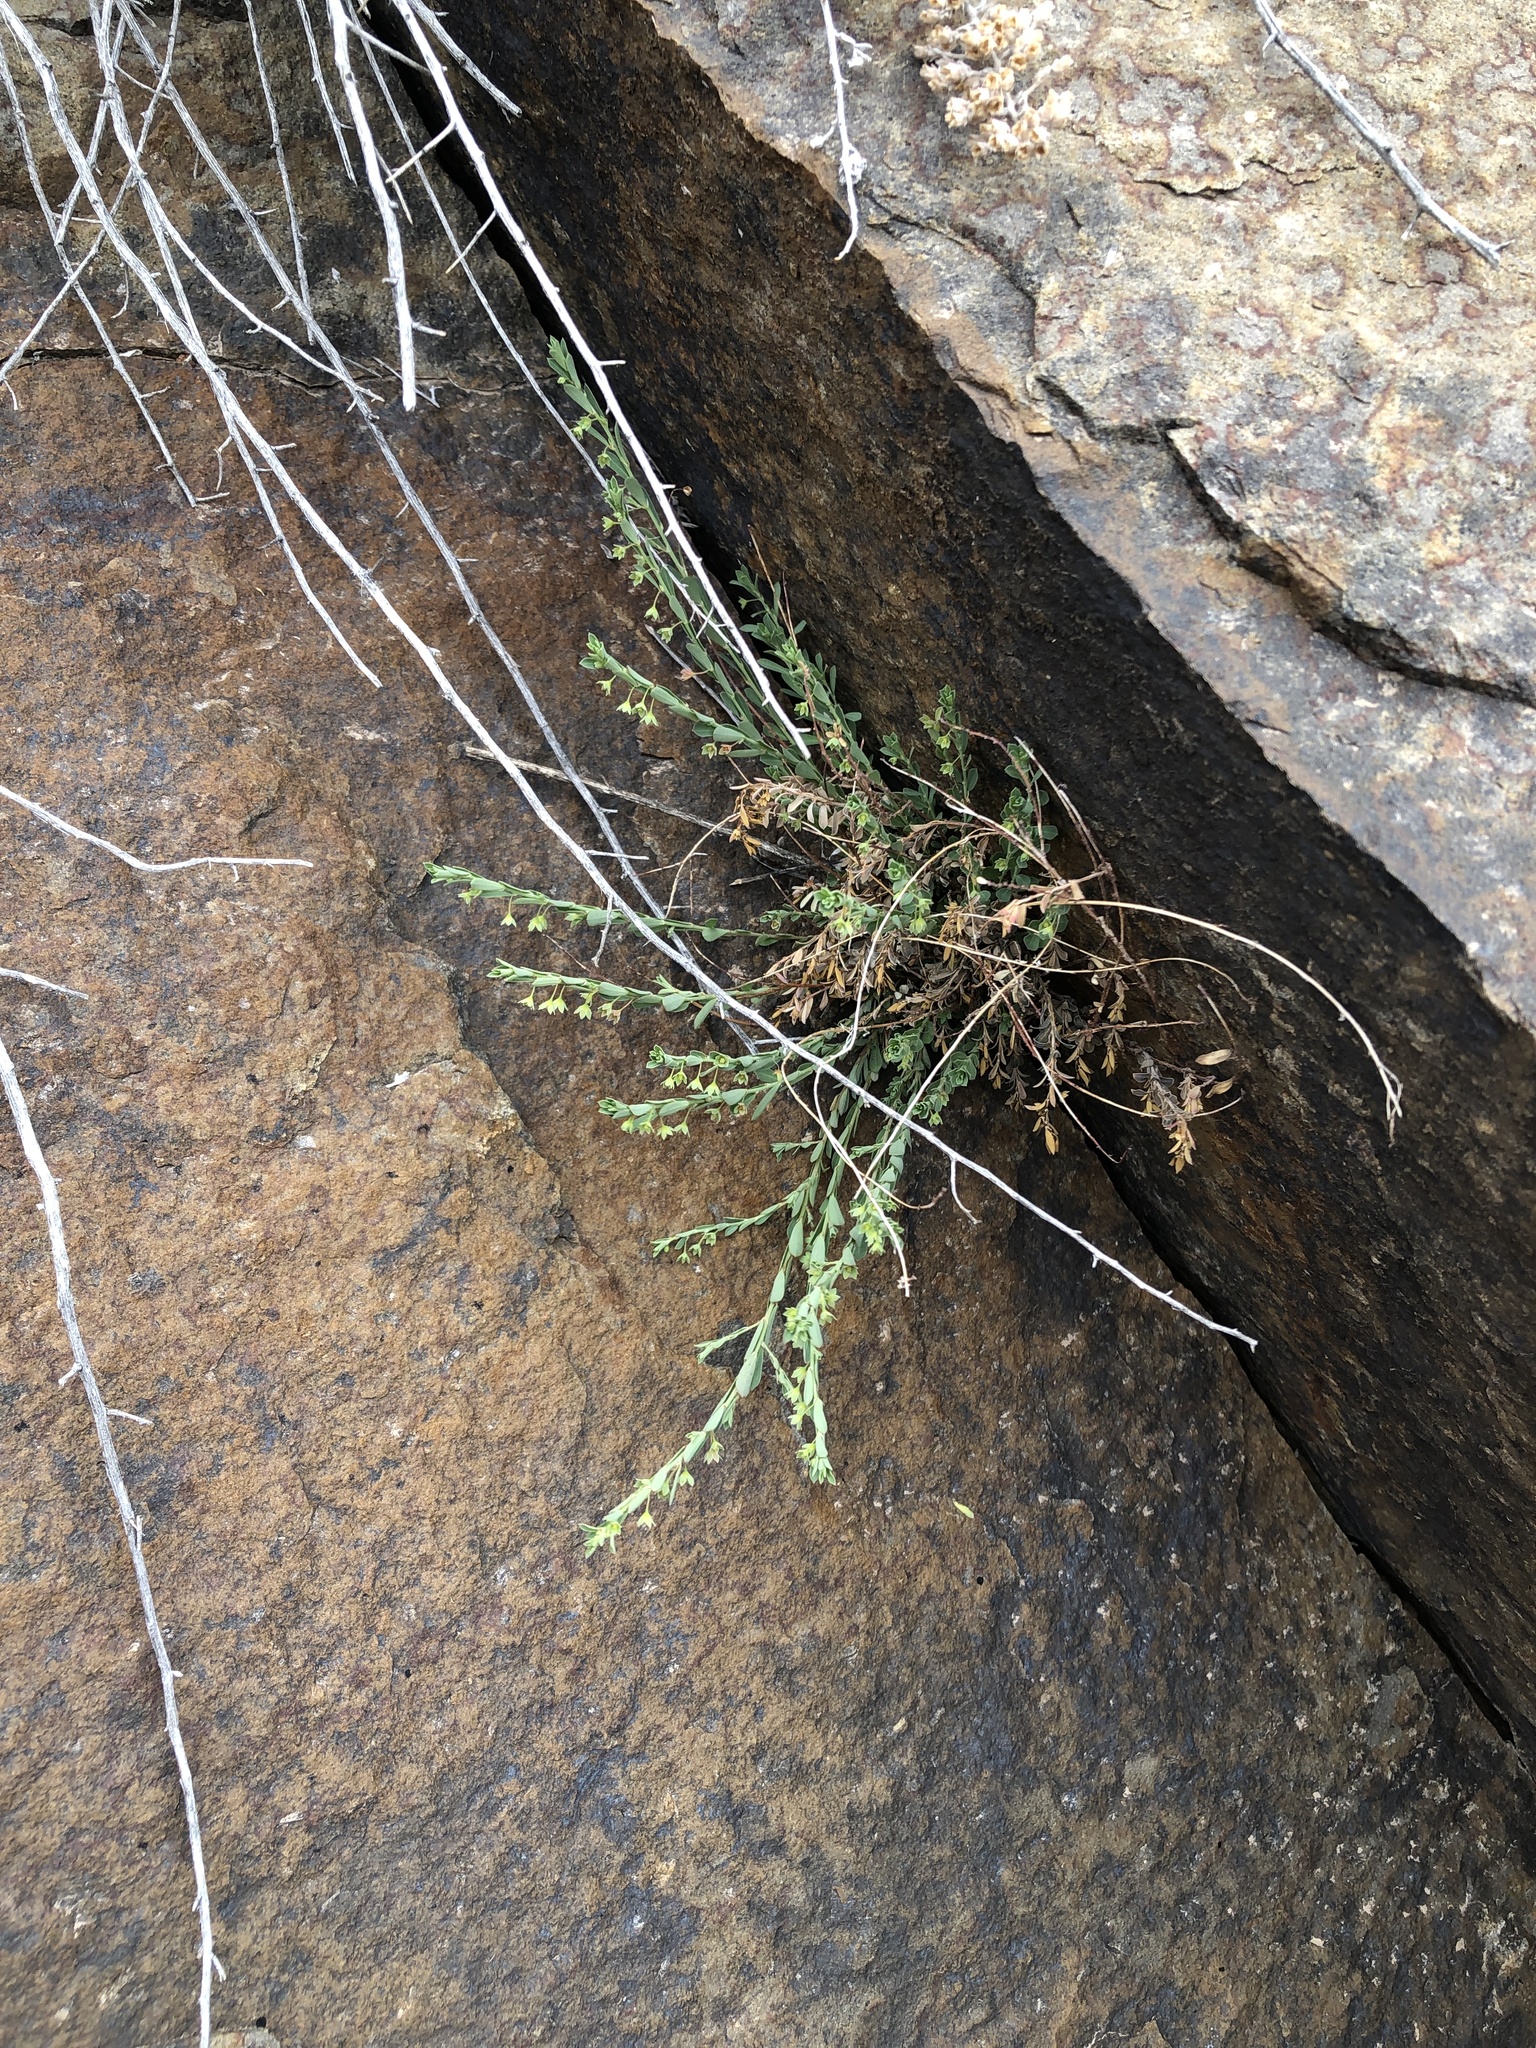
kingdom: Plantae
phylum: Tracheophyta
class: Magnoliopsida
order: Malpighiales
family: Phyllanthaceae
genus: Phyllanthus
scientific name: Phyllanthus polygonoides
